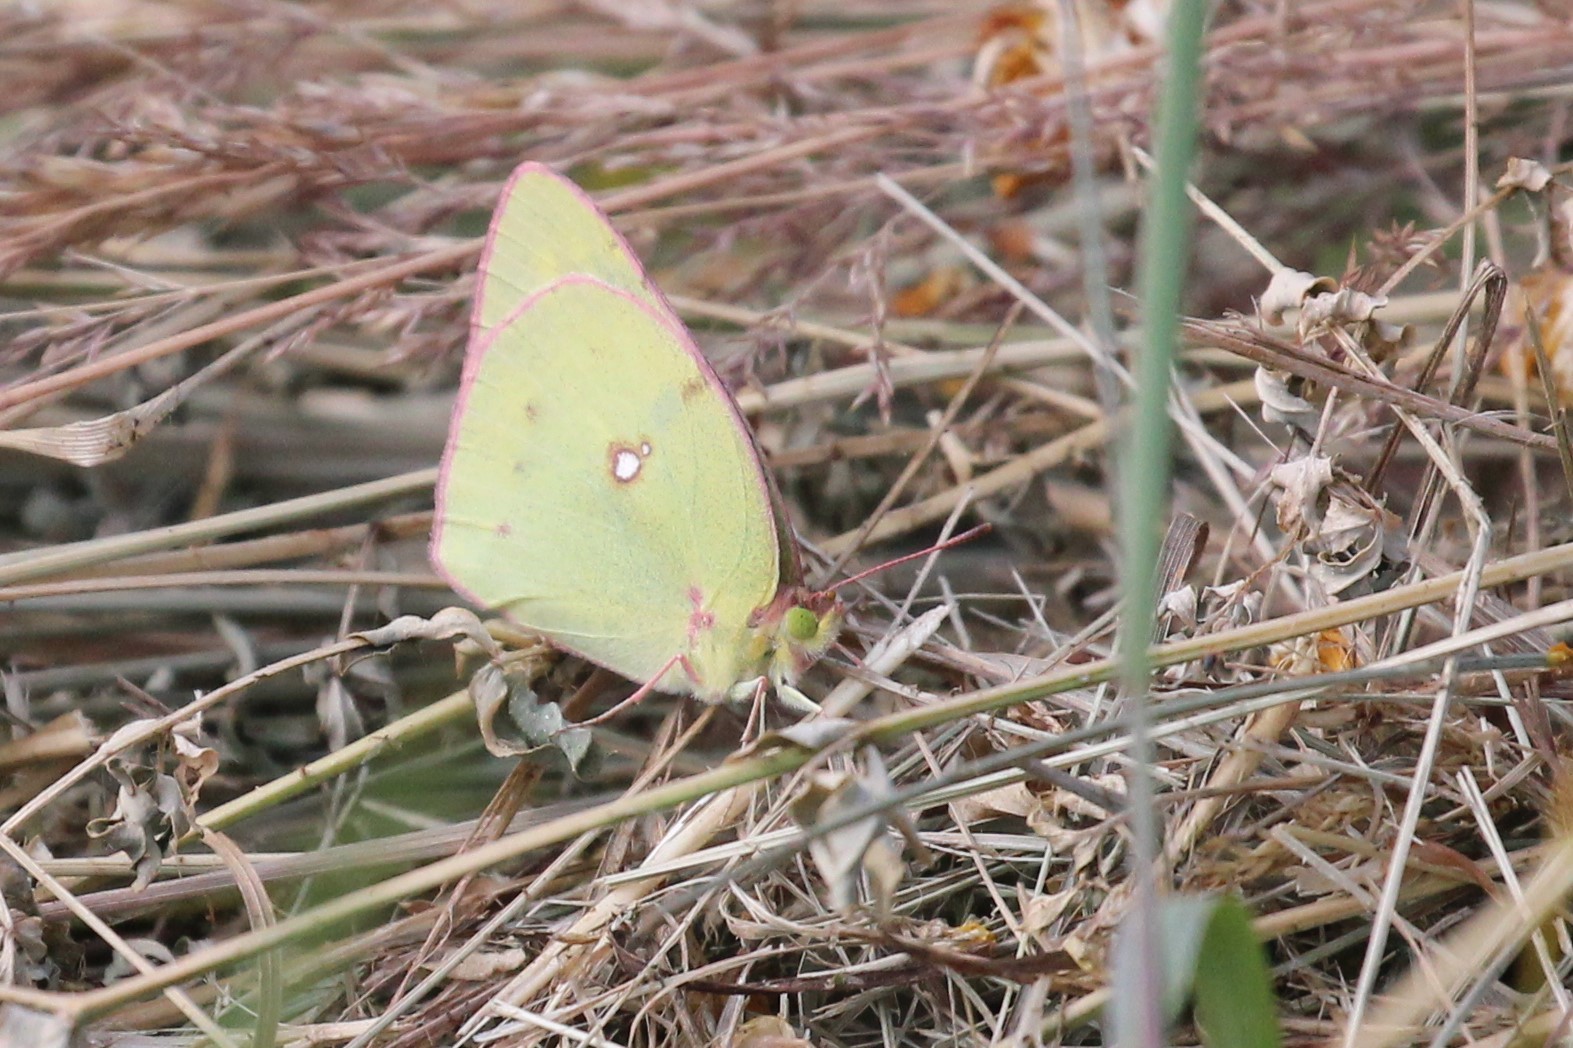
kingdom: Animalia
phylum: Arthropoda
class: Insecta
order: Lepidoptera
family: Pieridae
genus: Colias
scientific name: Colias philodice
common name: Clouded sulphur
